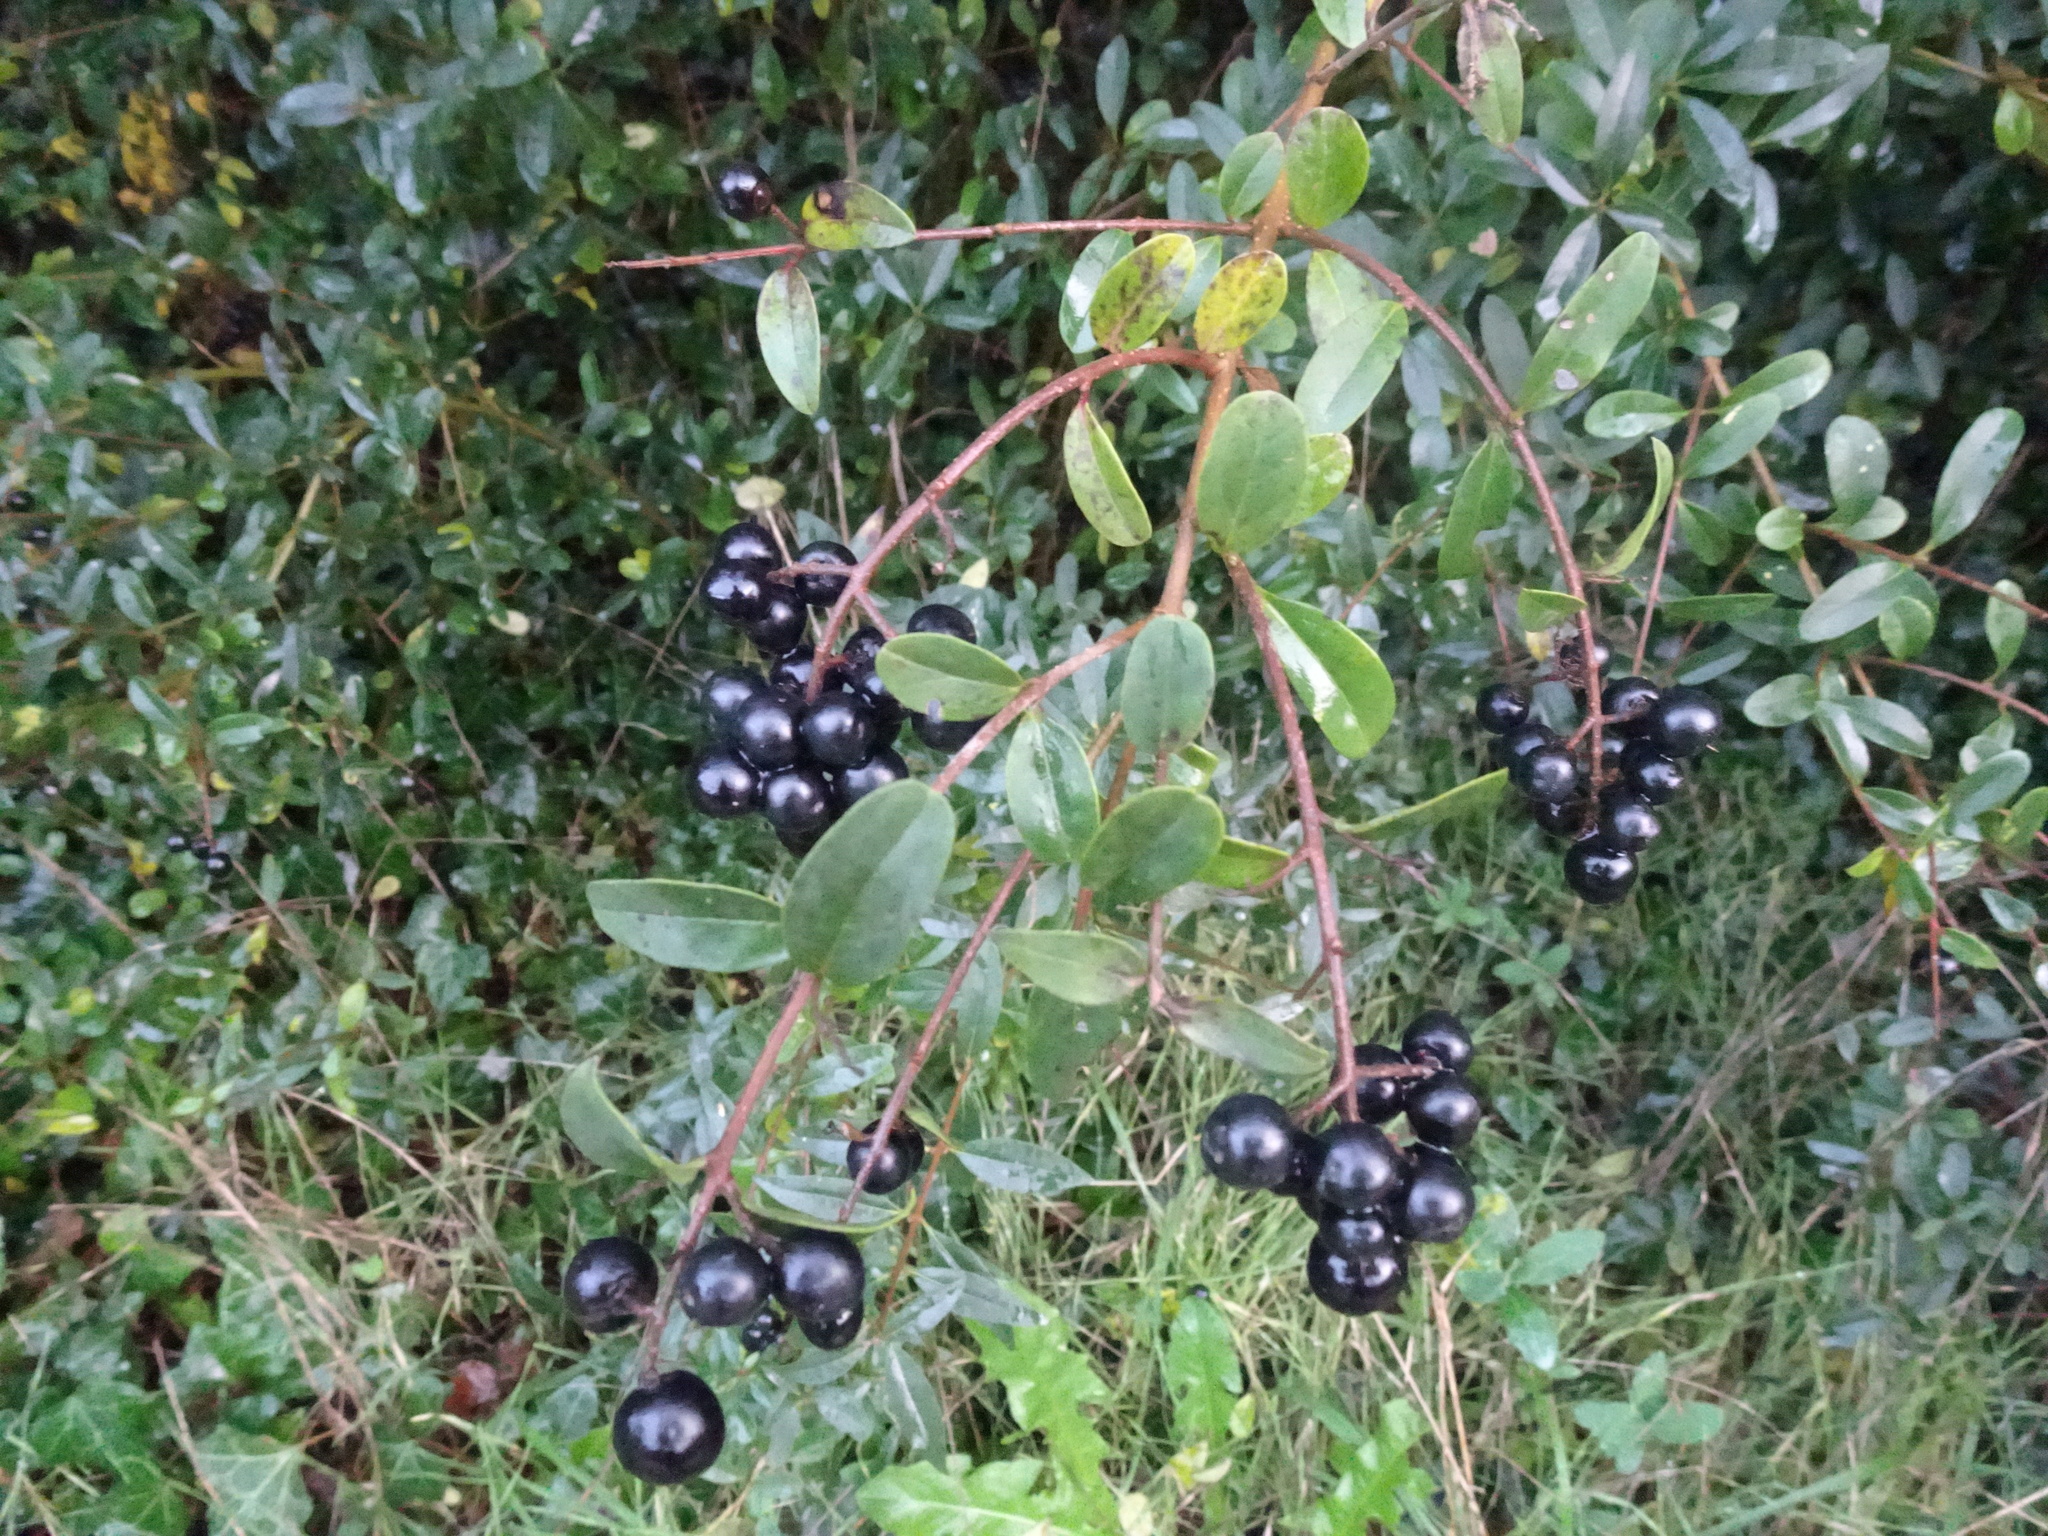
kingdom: Plantae
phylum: Tracheophyta
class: Magnoliopsida
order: Lamiales
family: Oleaceae
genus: Ligustrum
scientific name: Ligustrum vulgare
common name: Wild privet
